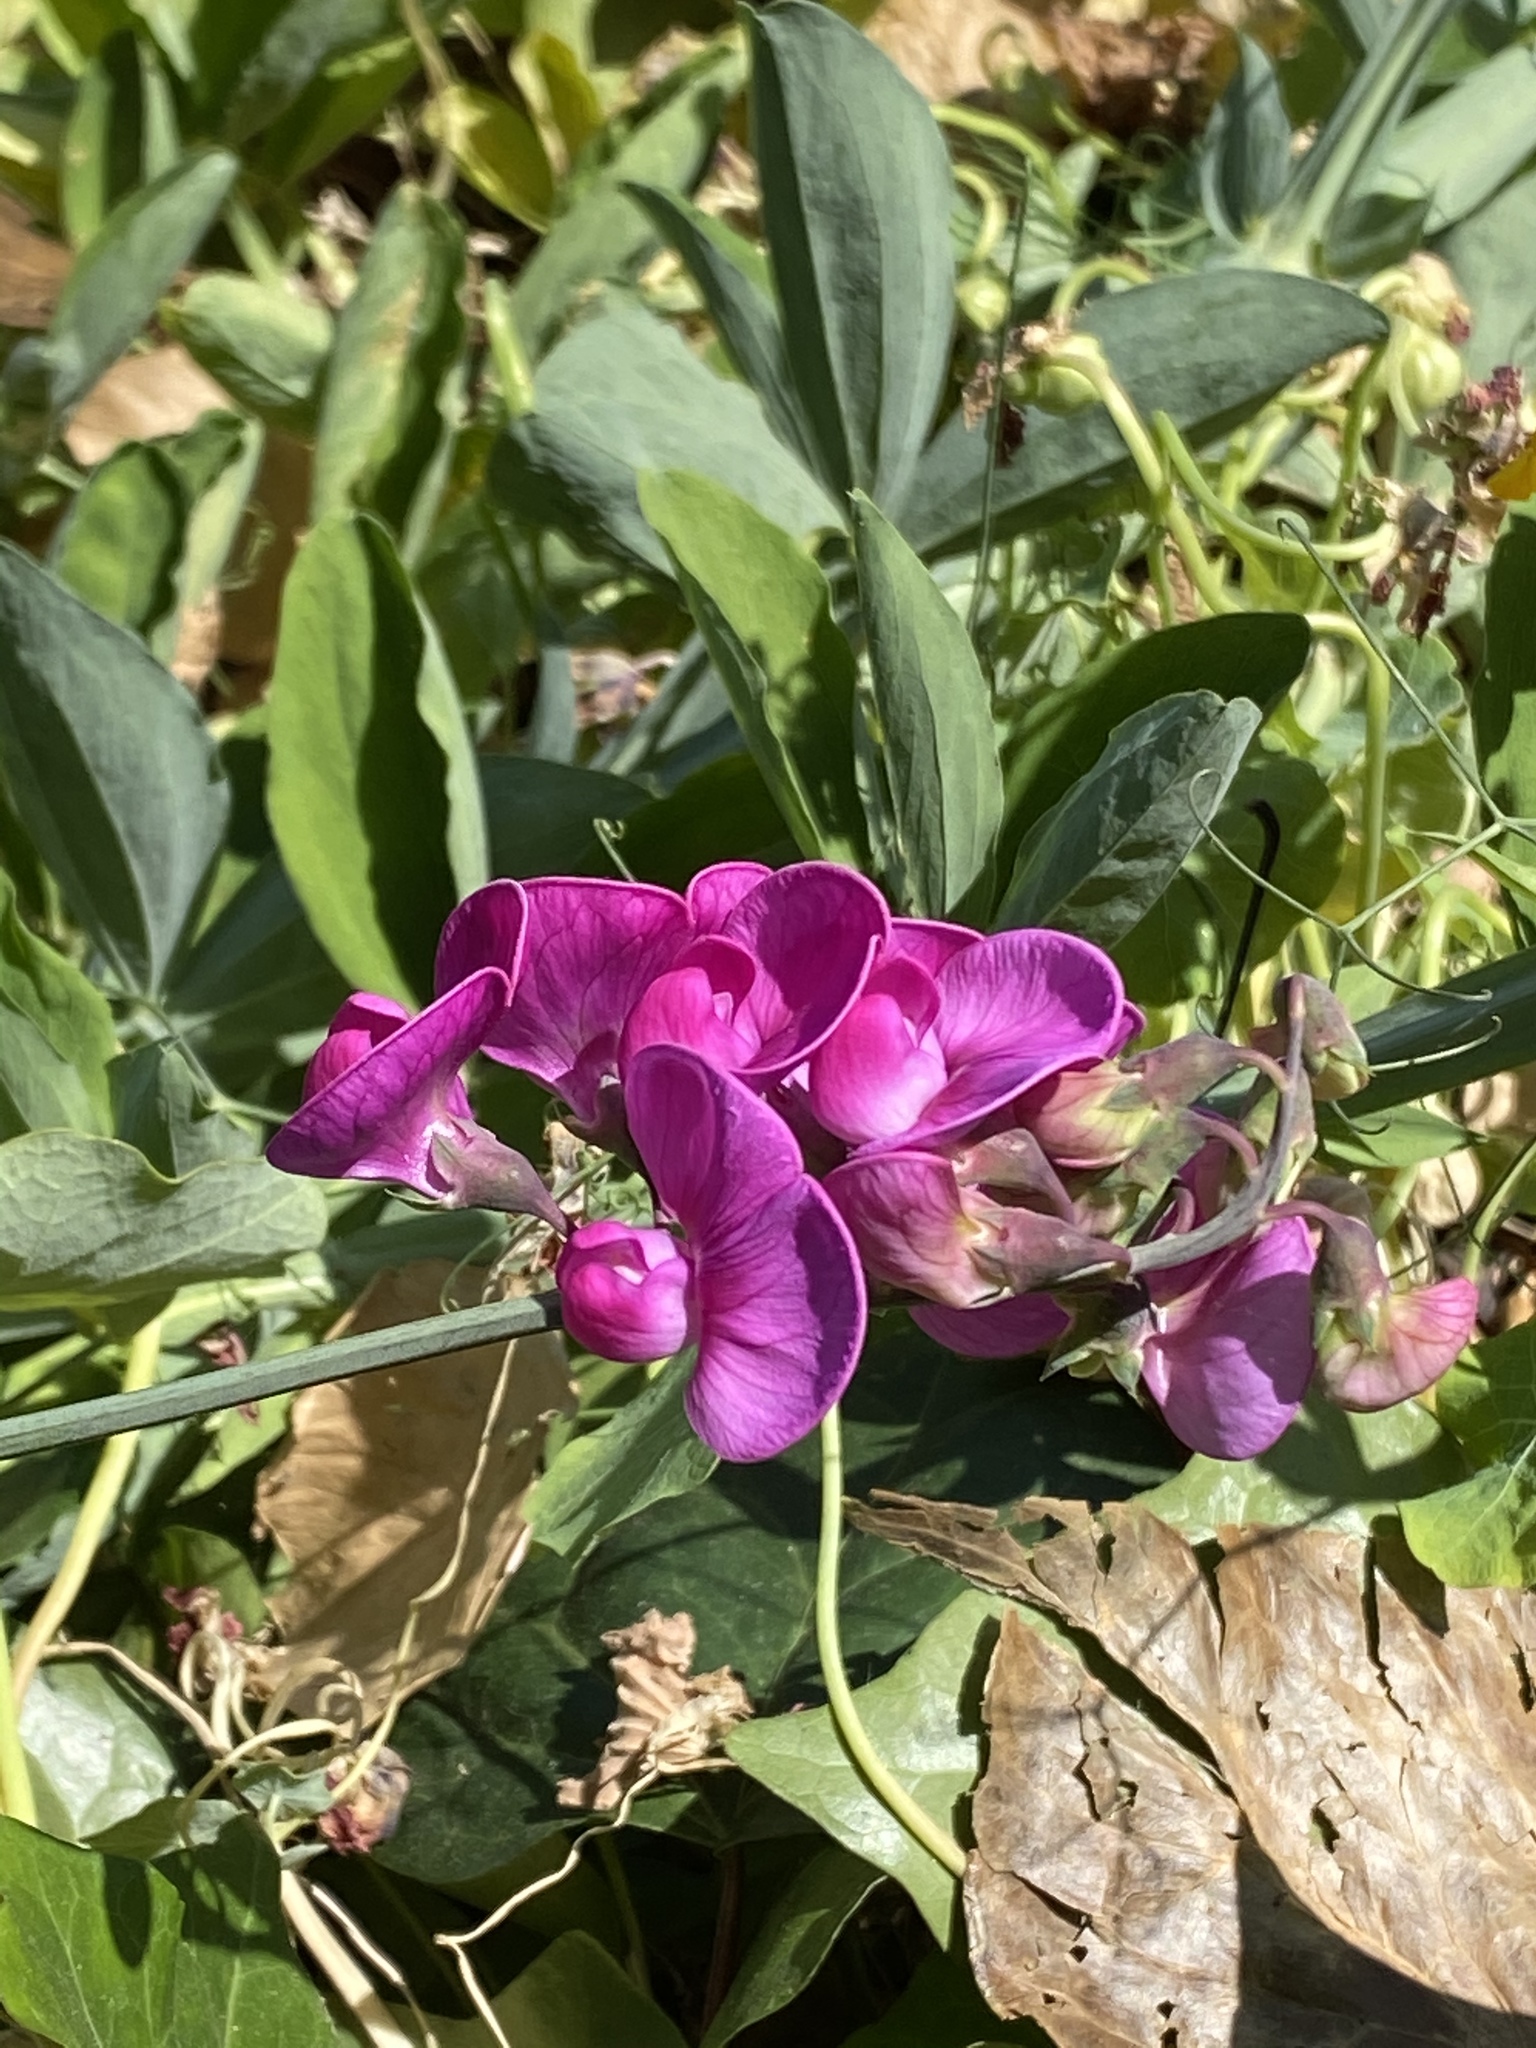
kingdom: Plantae
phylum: Tracheophyta
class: Magnoliopsida
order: Fabales
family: Fabaceae
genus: Lathyrus
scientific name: Lathyrus latifolius
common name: Perennial pea
